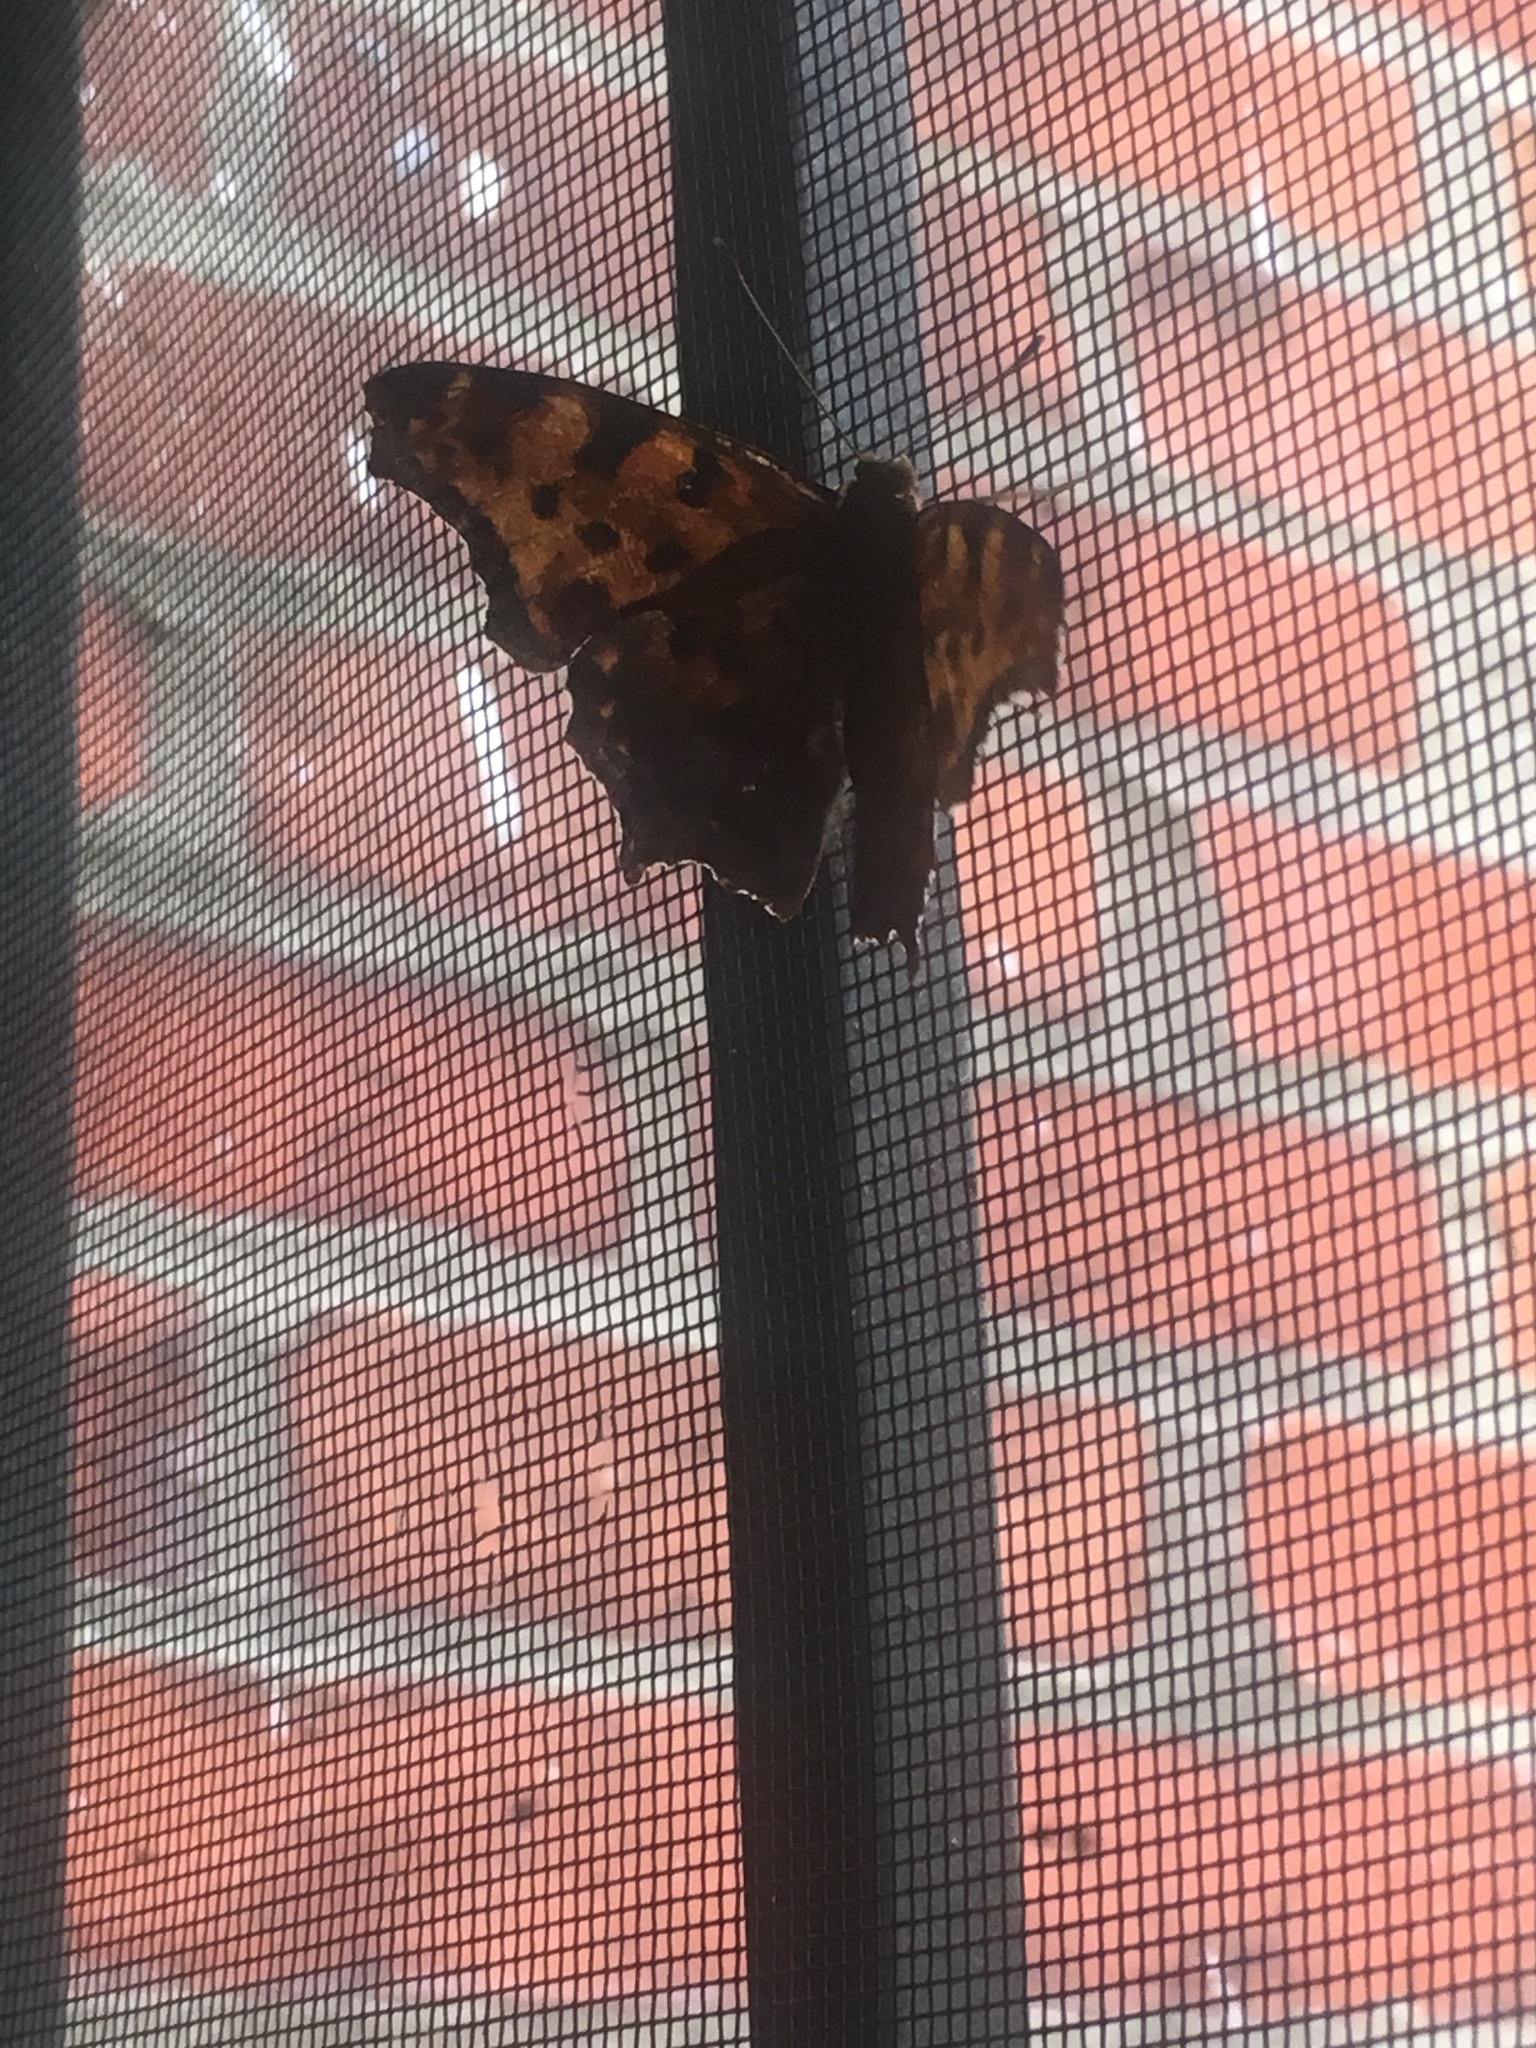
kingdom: Animalia
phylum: Arthropoda
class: Insecta
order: Lepidoptera
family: Nymphalidae
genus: Polygonia
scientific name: Polygonia comma
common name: Eastern comma
